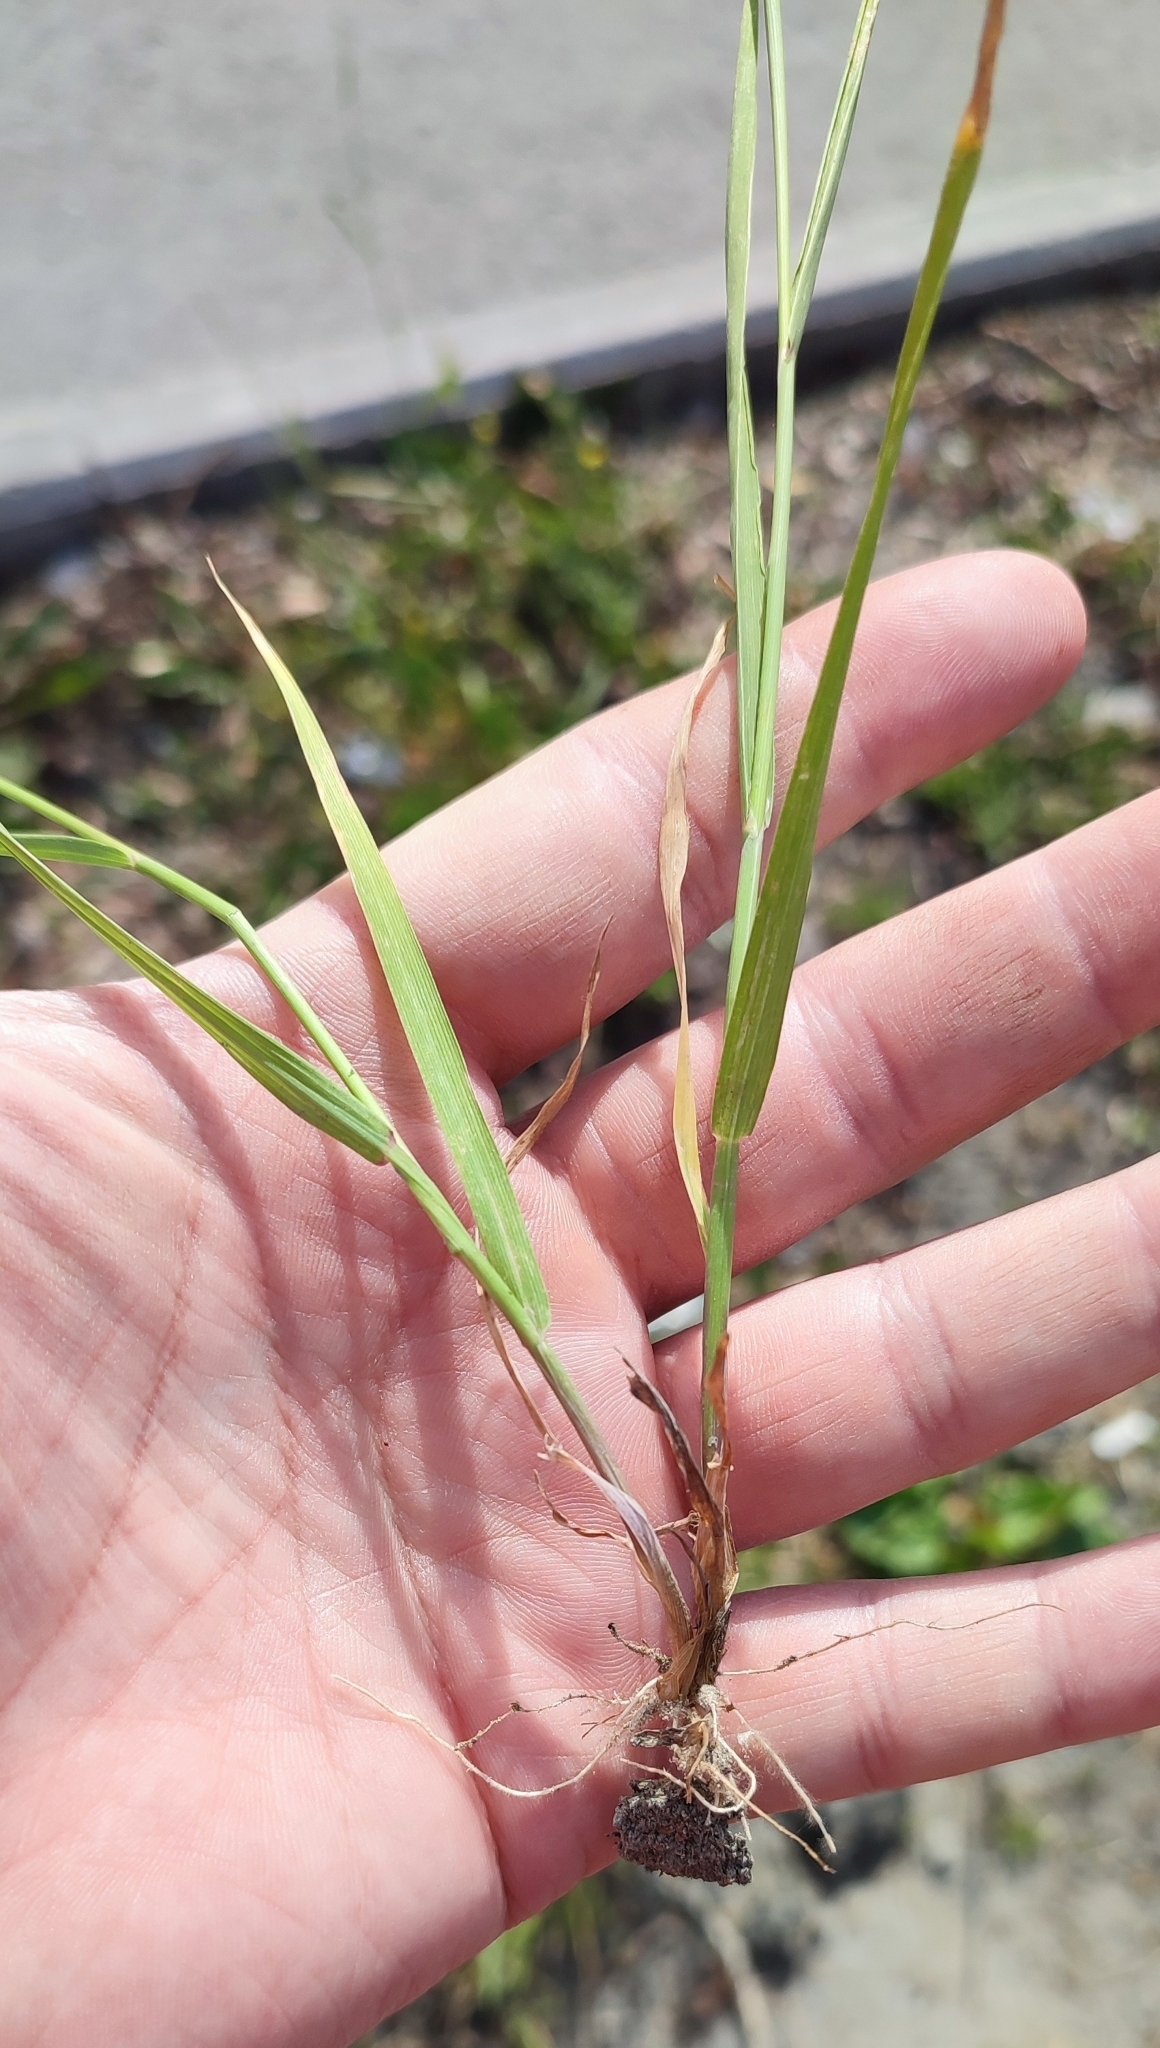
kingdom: Plantae
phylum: Tracheophyta
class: Liliopsida
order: Poales
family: Poaceae
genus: Agrostis
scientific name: Agrostis stolonifera
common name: Creeping bentgrass
